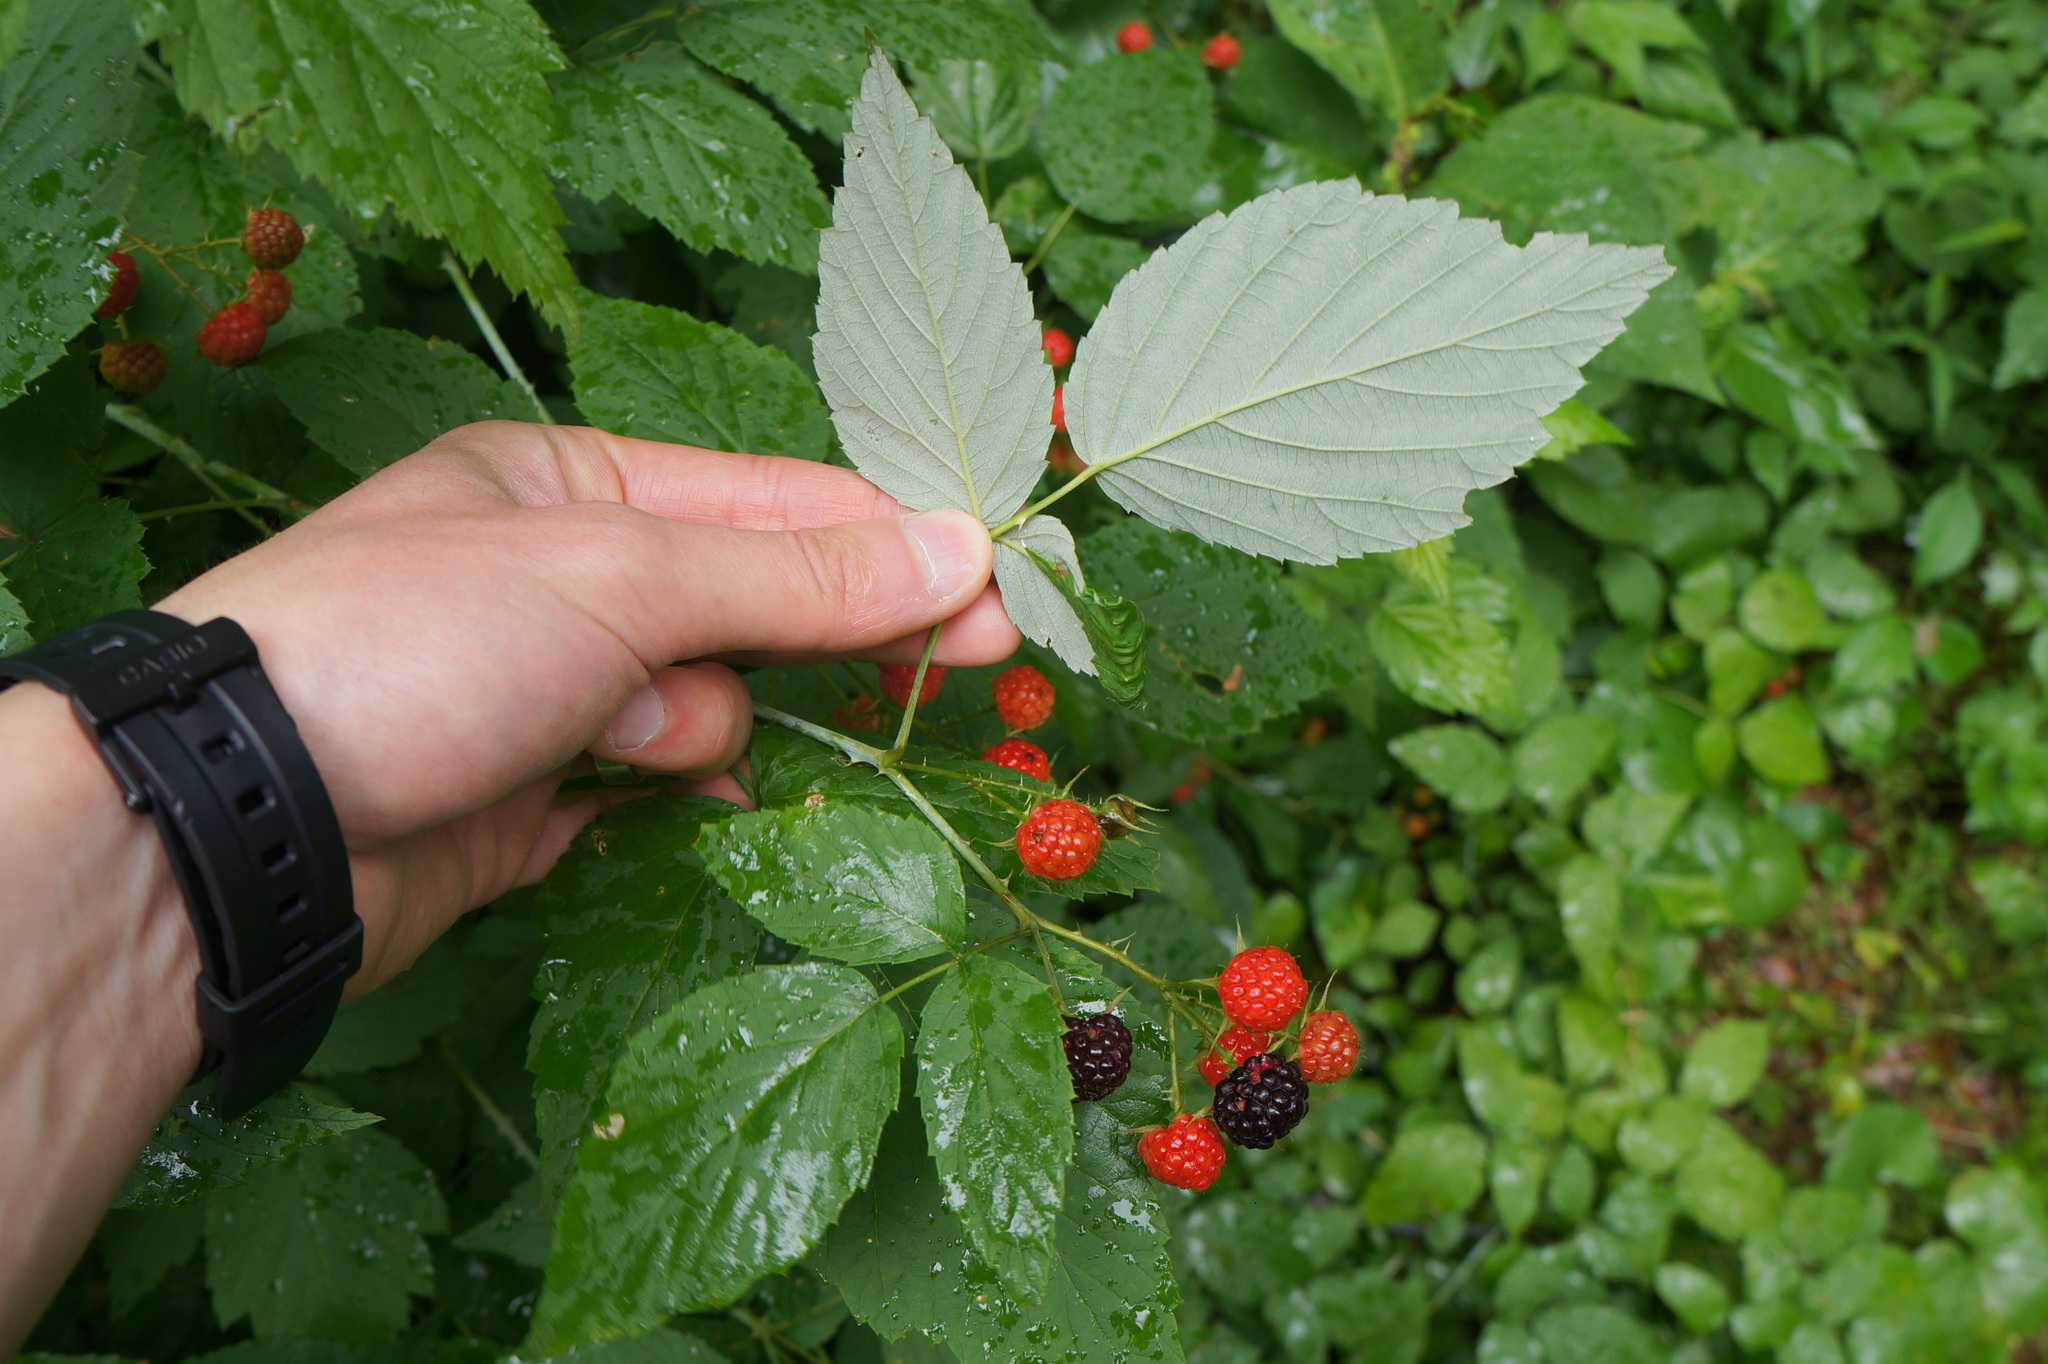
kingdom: Plantae
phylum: Tracheophyta
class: Magnoliopsida
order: Rosales
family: Rosaceae
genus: Rubus
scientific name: Rubus occidentalis
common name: Black raspberry
